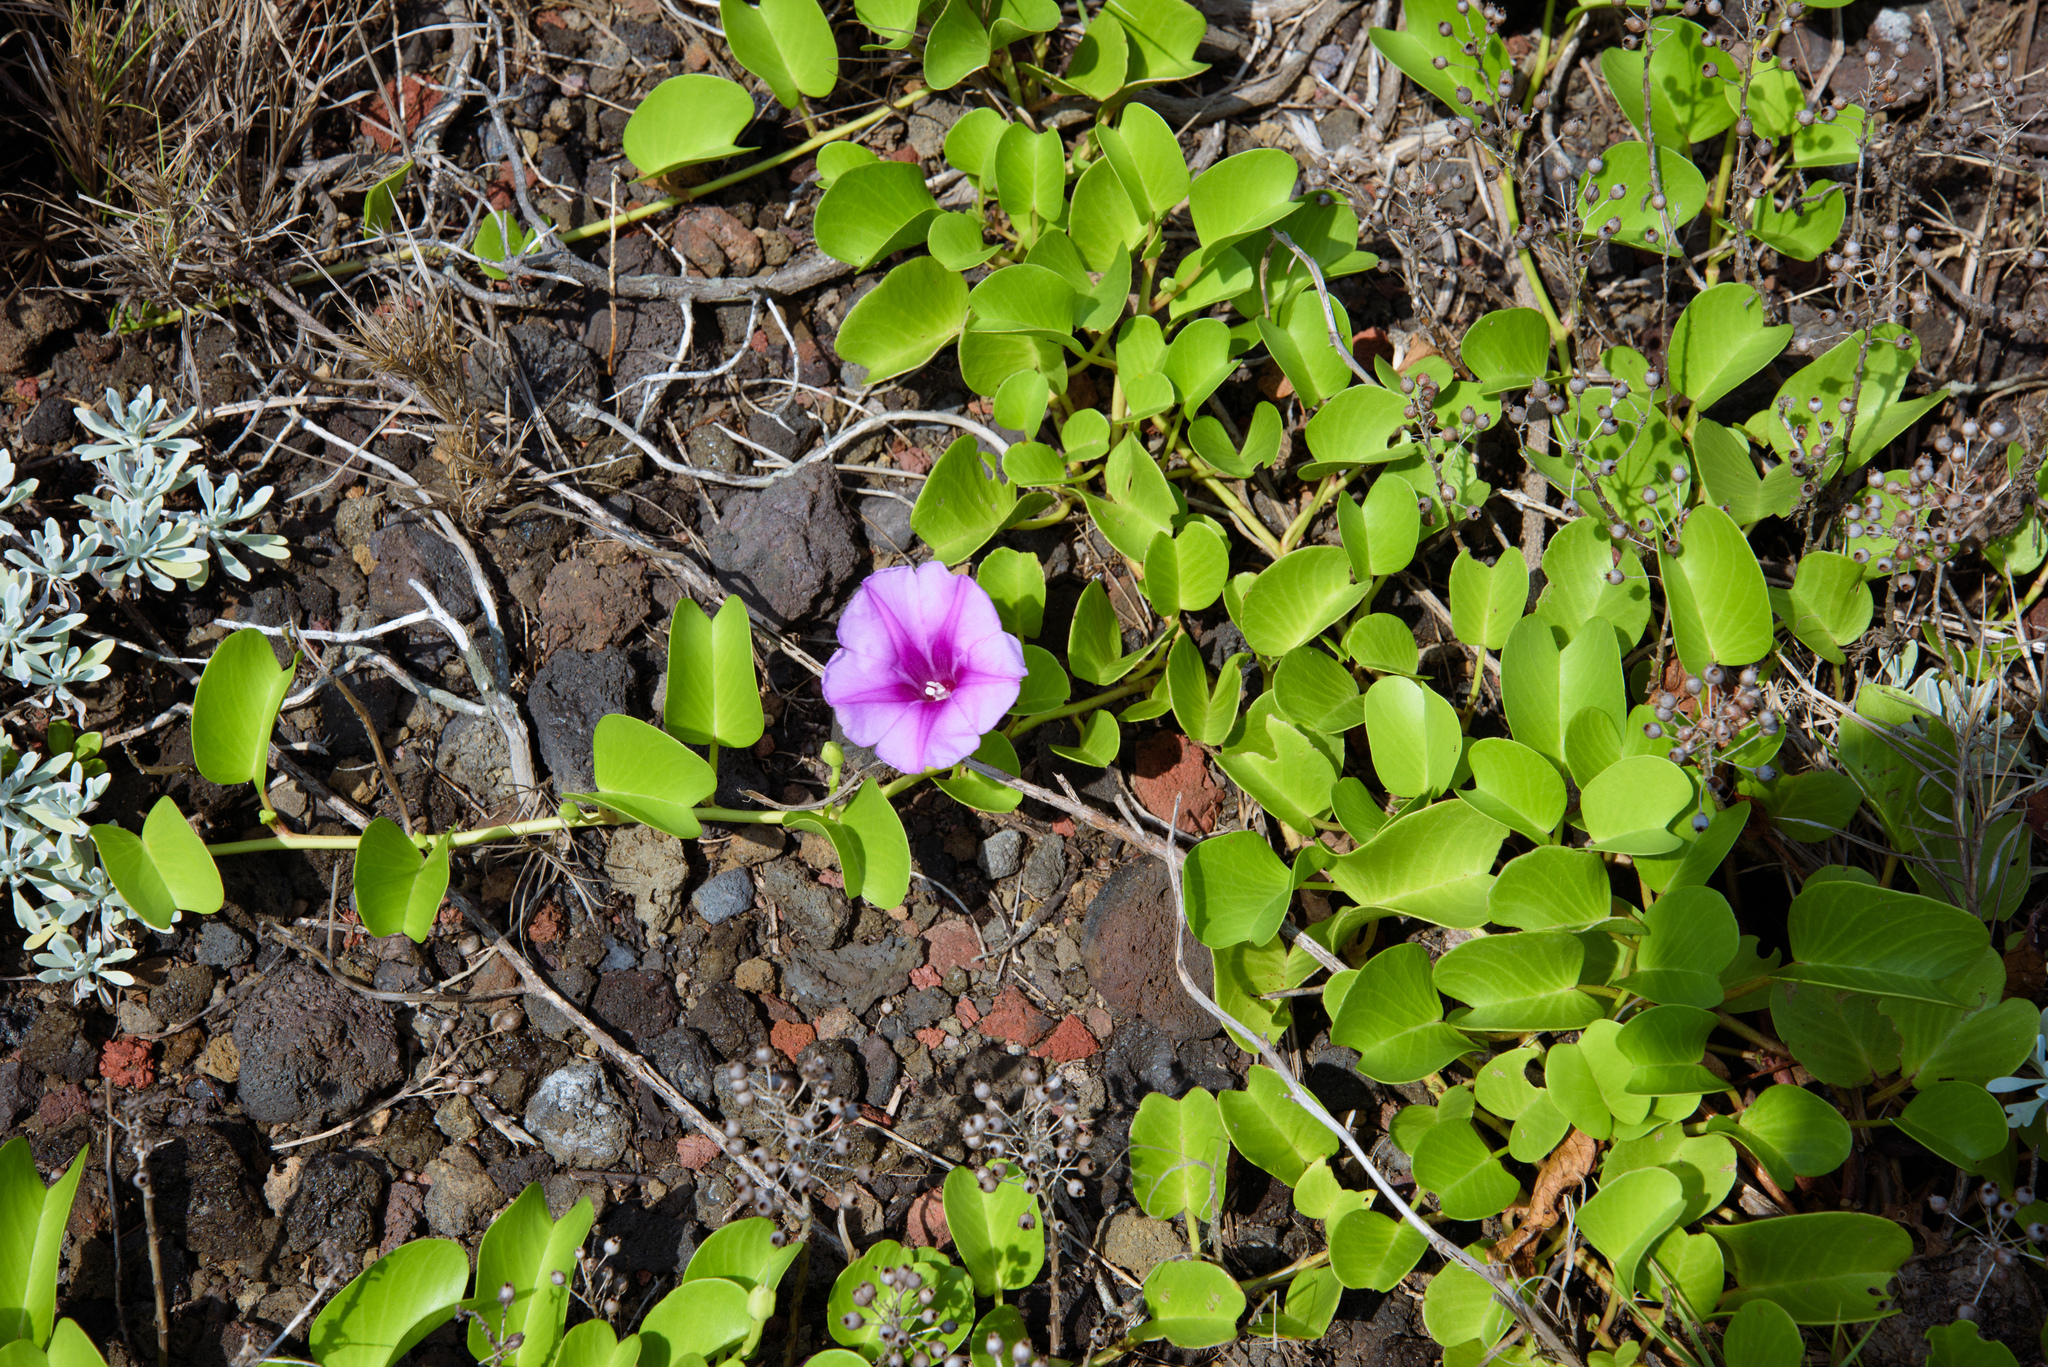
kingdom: Plantae
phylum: Tracheophyta
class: Magnoliopsida
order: Solanales
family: Convolvulaceae
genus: Ipomoea
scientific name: Ipomoea pes-caprae
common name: Beach morning glory
